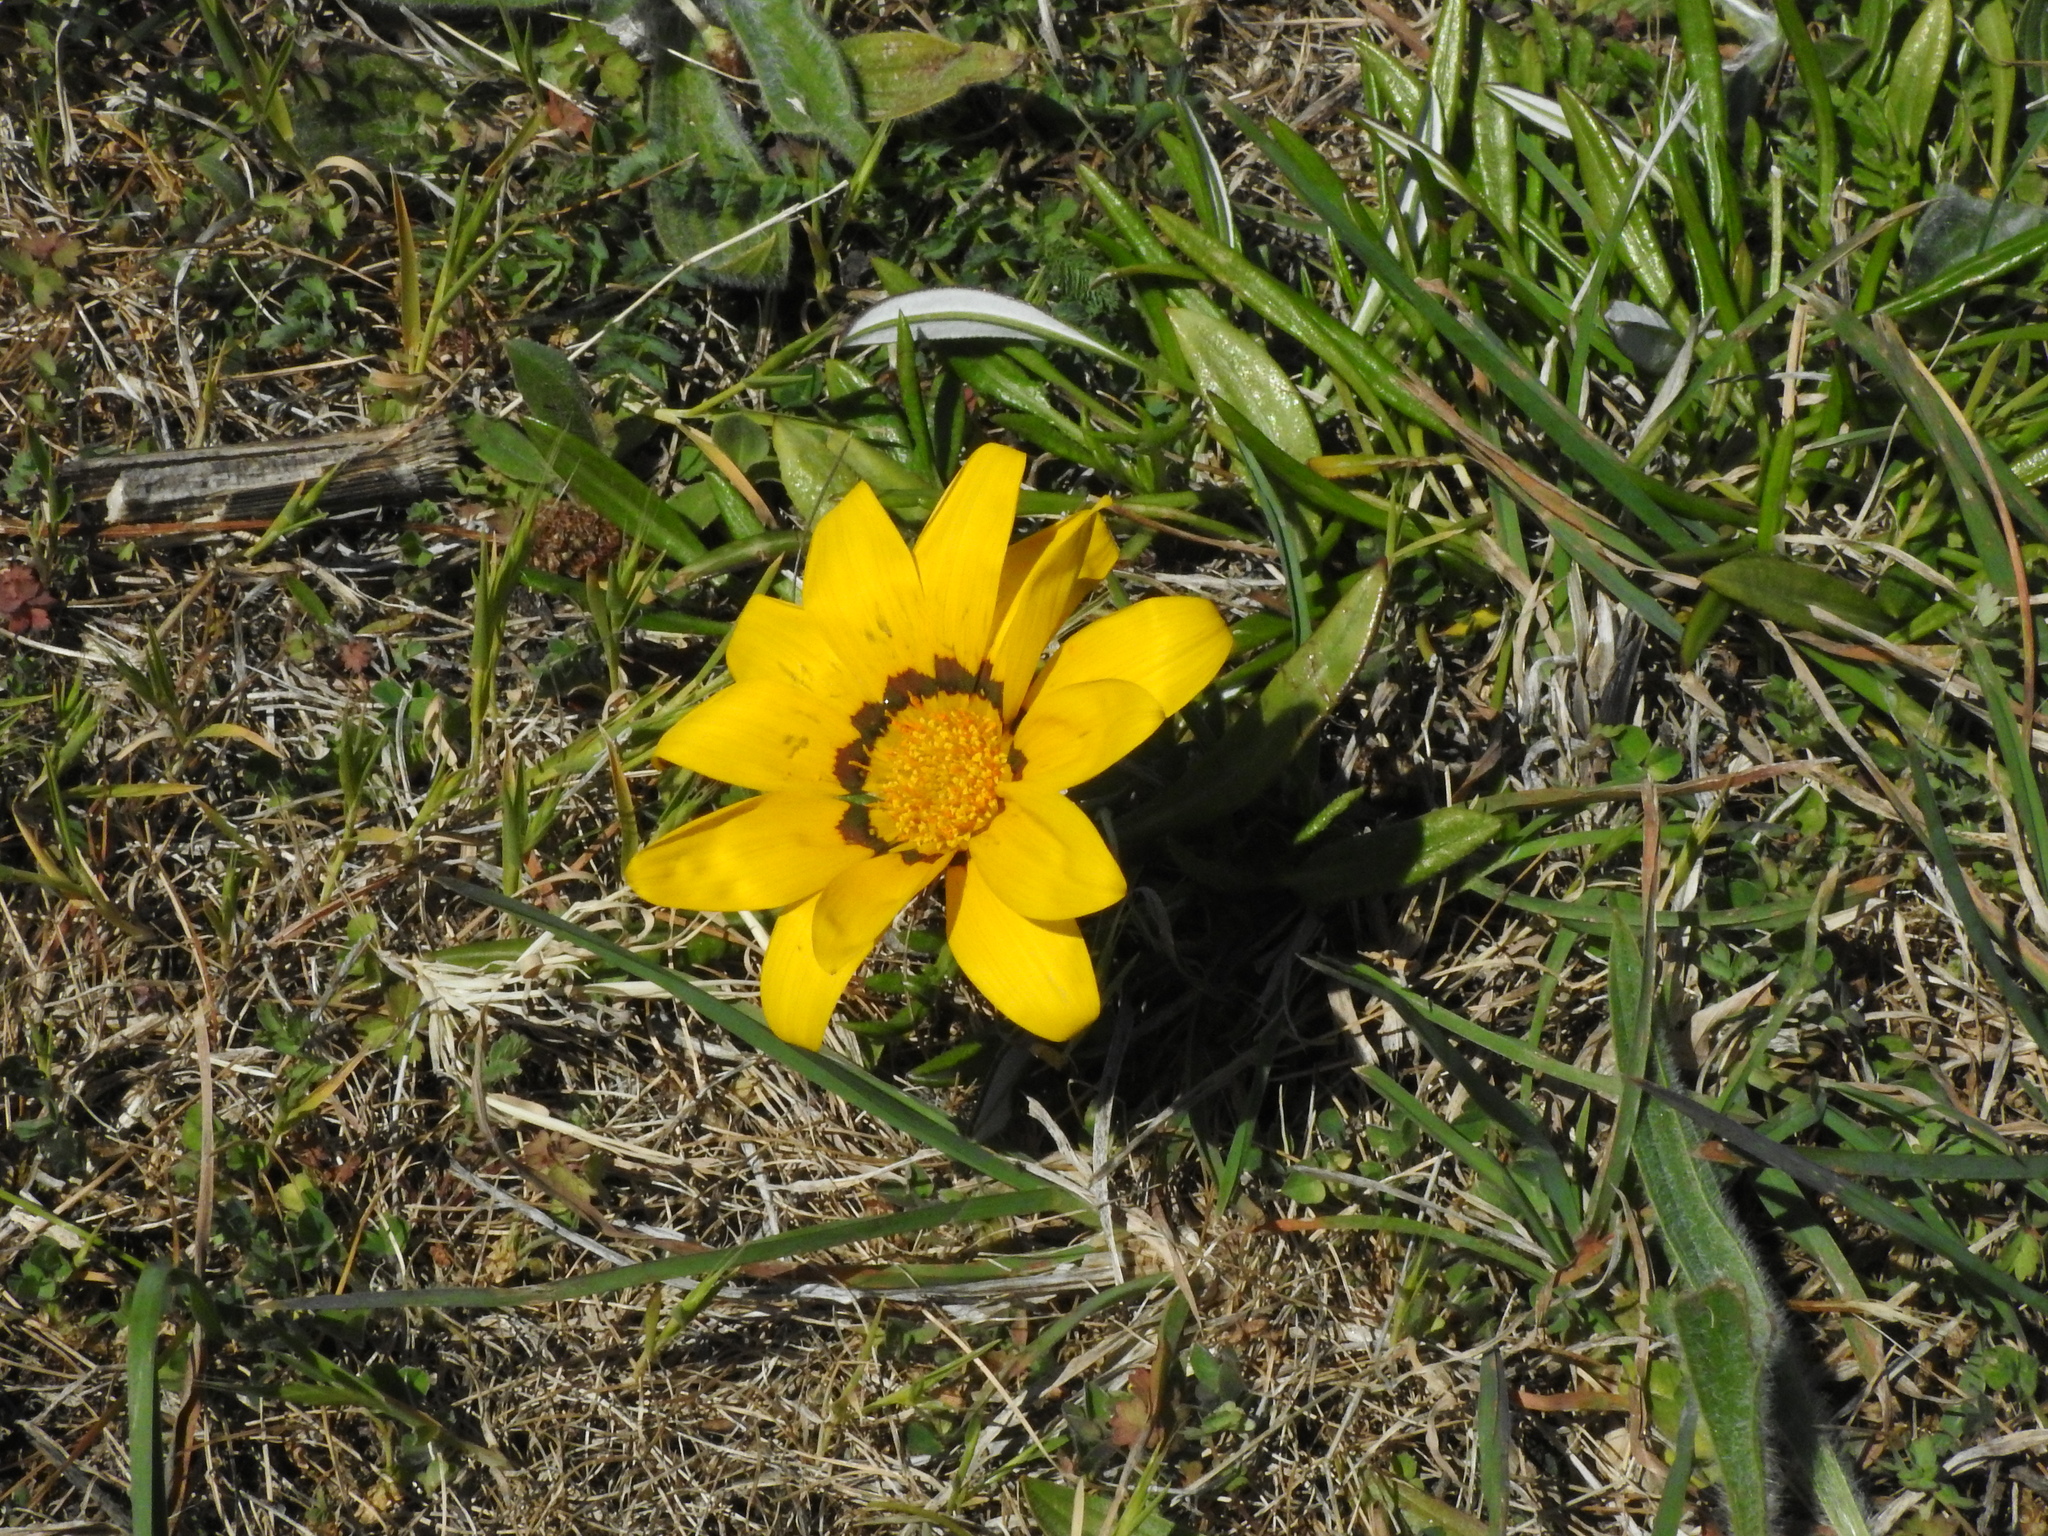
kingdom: Plantae
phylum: Tracheophyta
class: Magnoliopsida
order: Asterales
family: Asteraceae
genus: Gazania
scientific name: Gazania splendens
